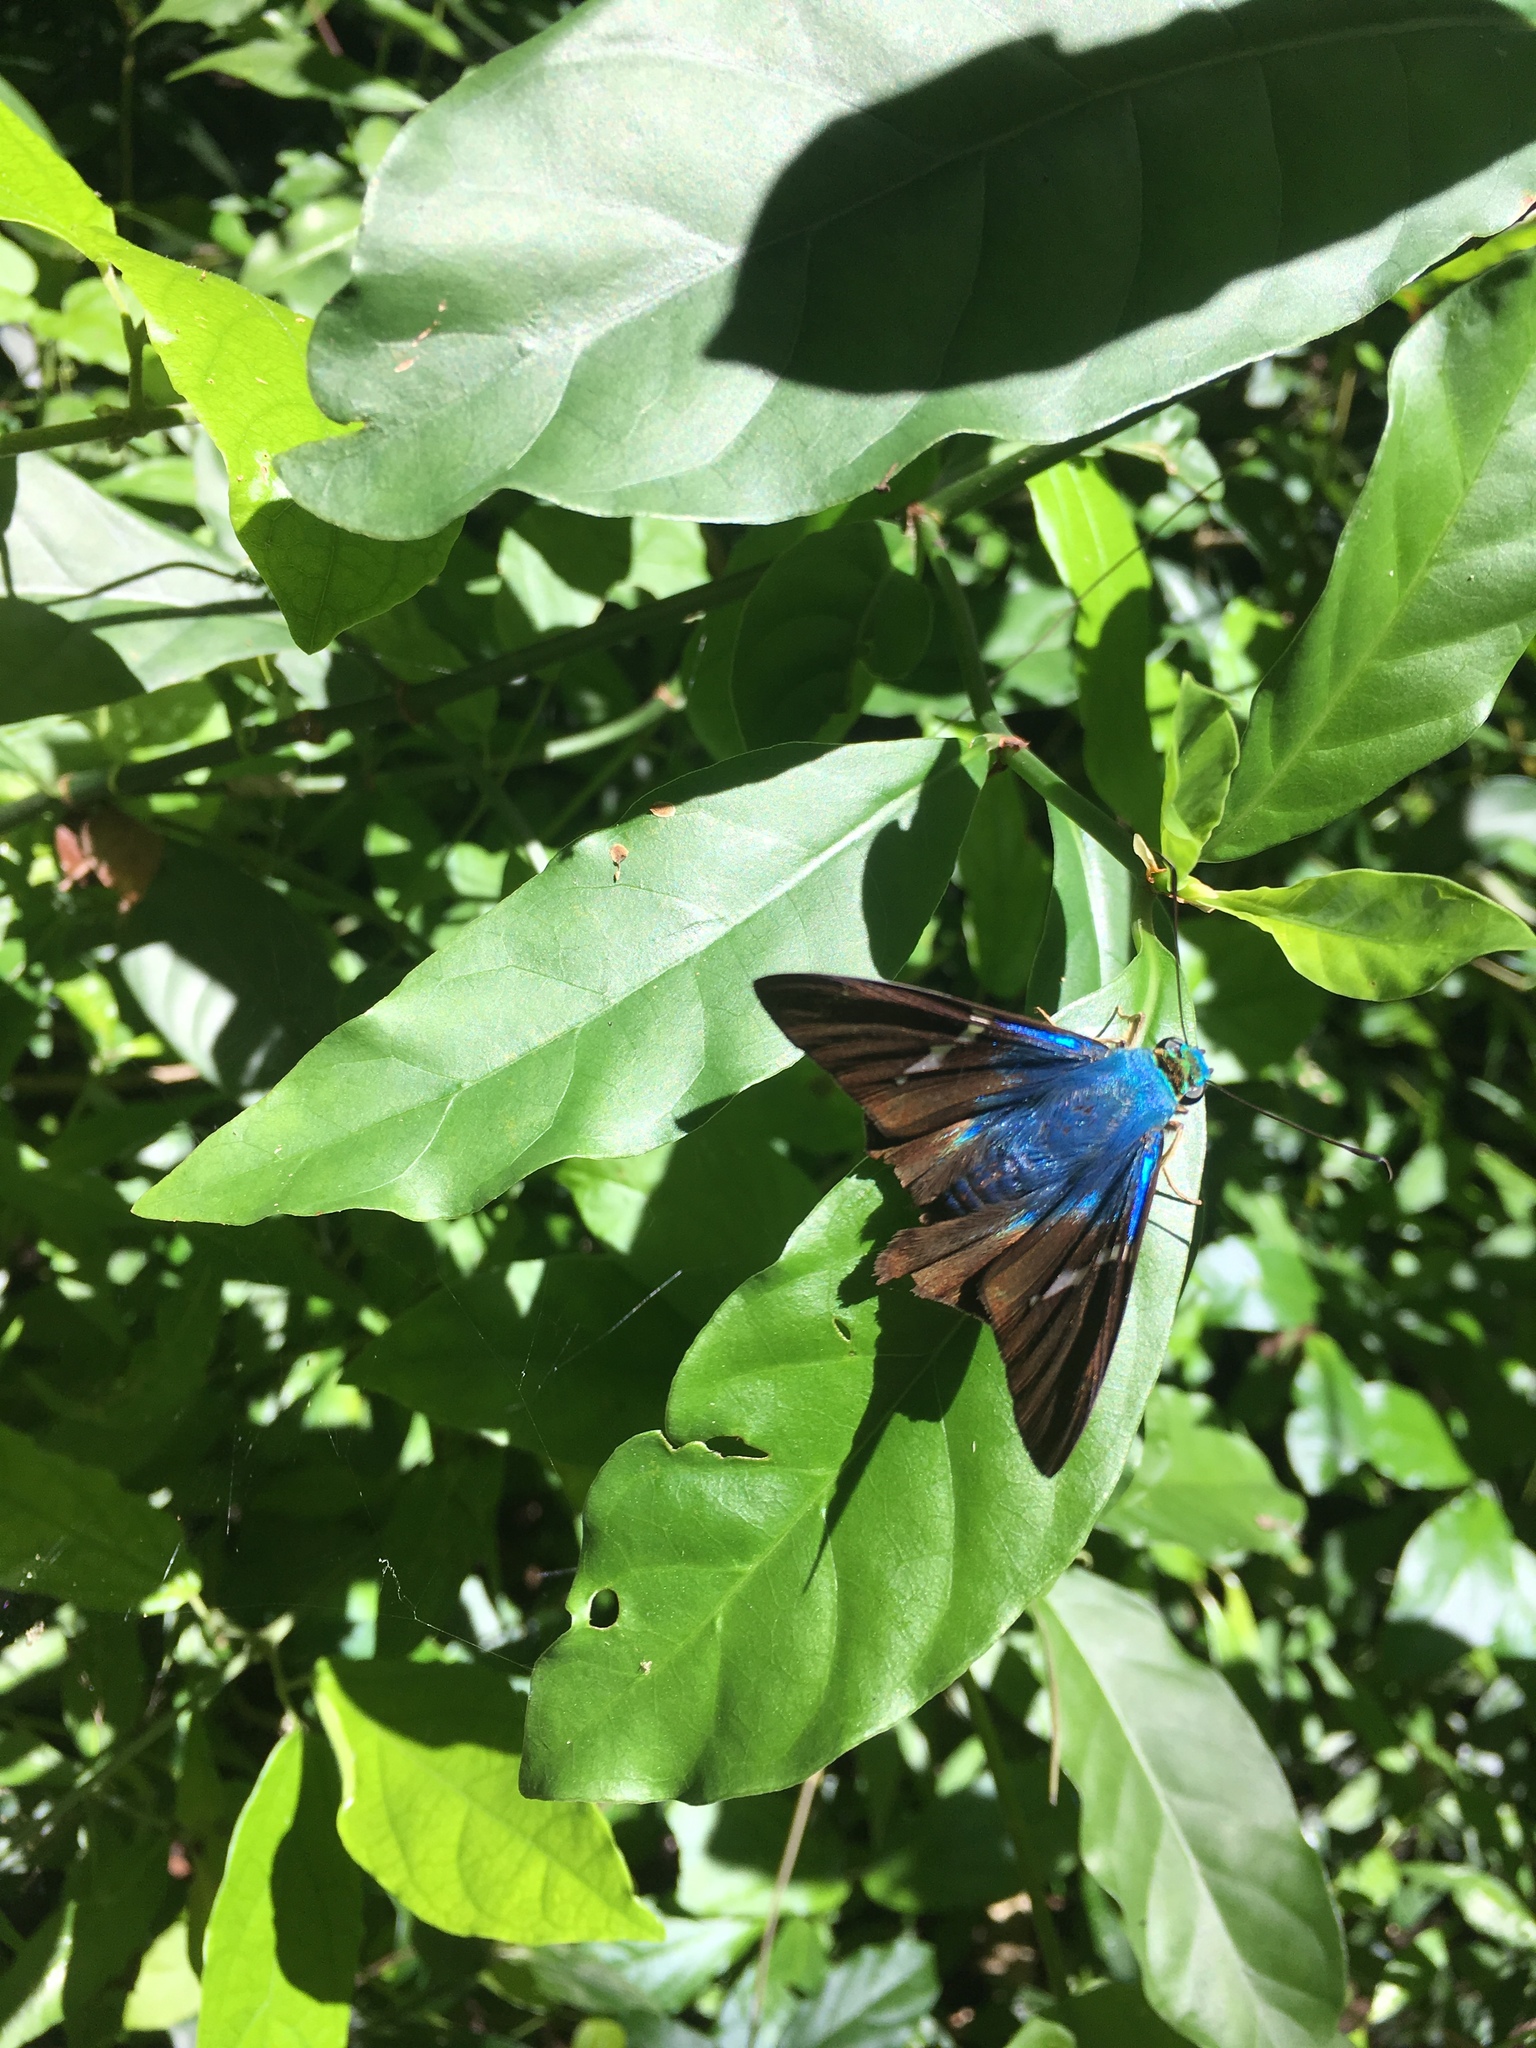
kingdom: Animalia
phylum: Arthropoda
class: Insecta
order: Lepidoptera
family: Hesperiidae
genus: Astraptes
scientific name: Astraptes fulgerator
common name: Two-barred flasher
